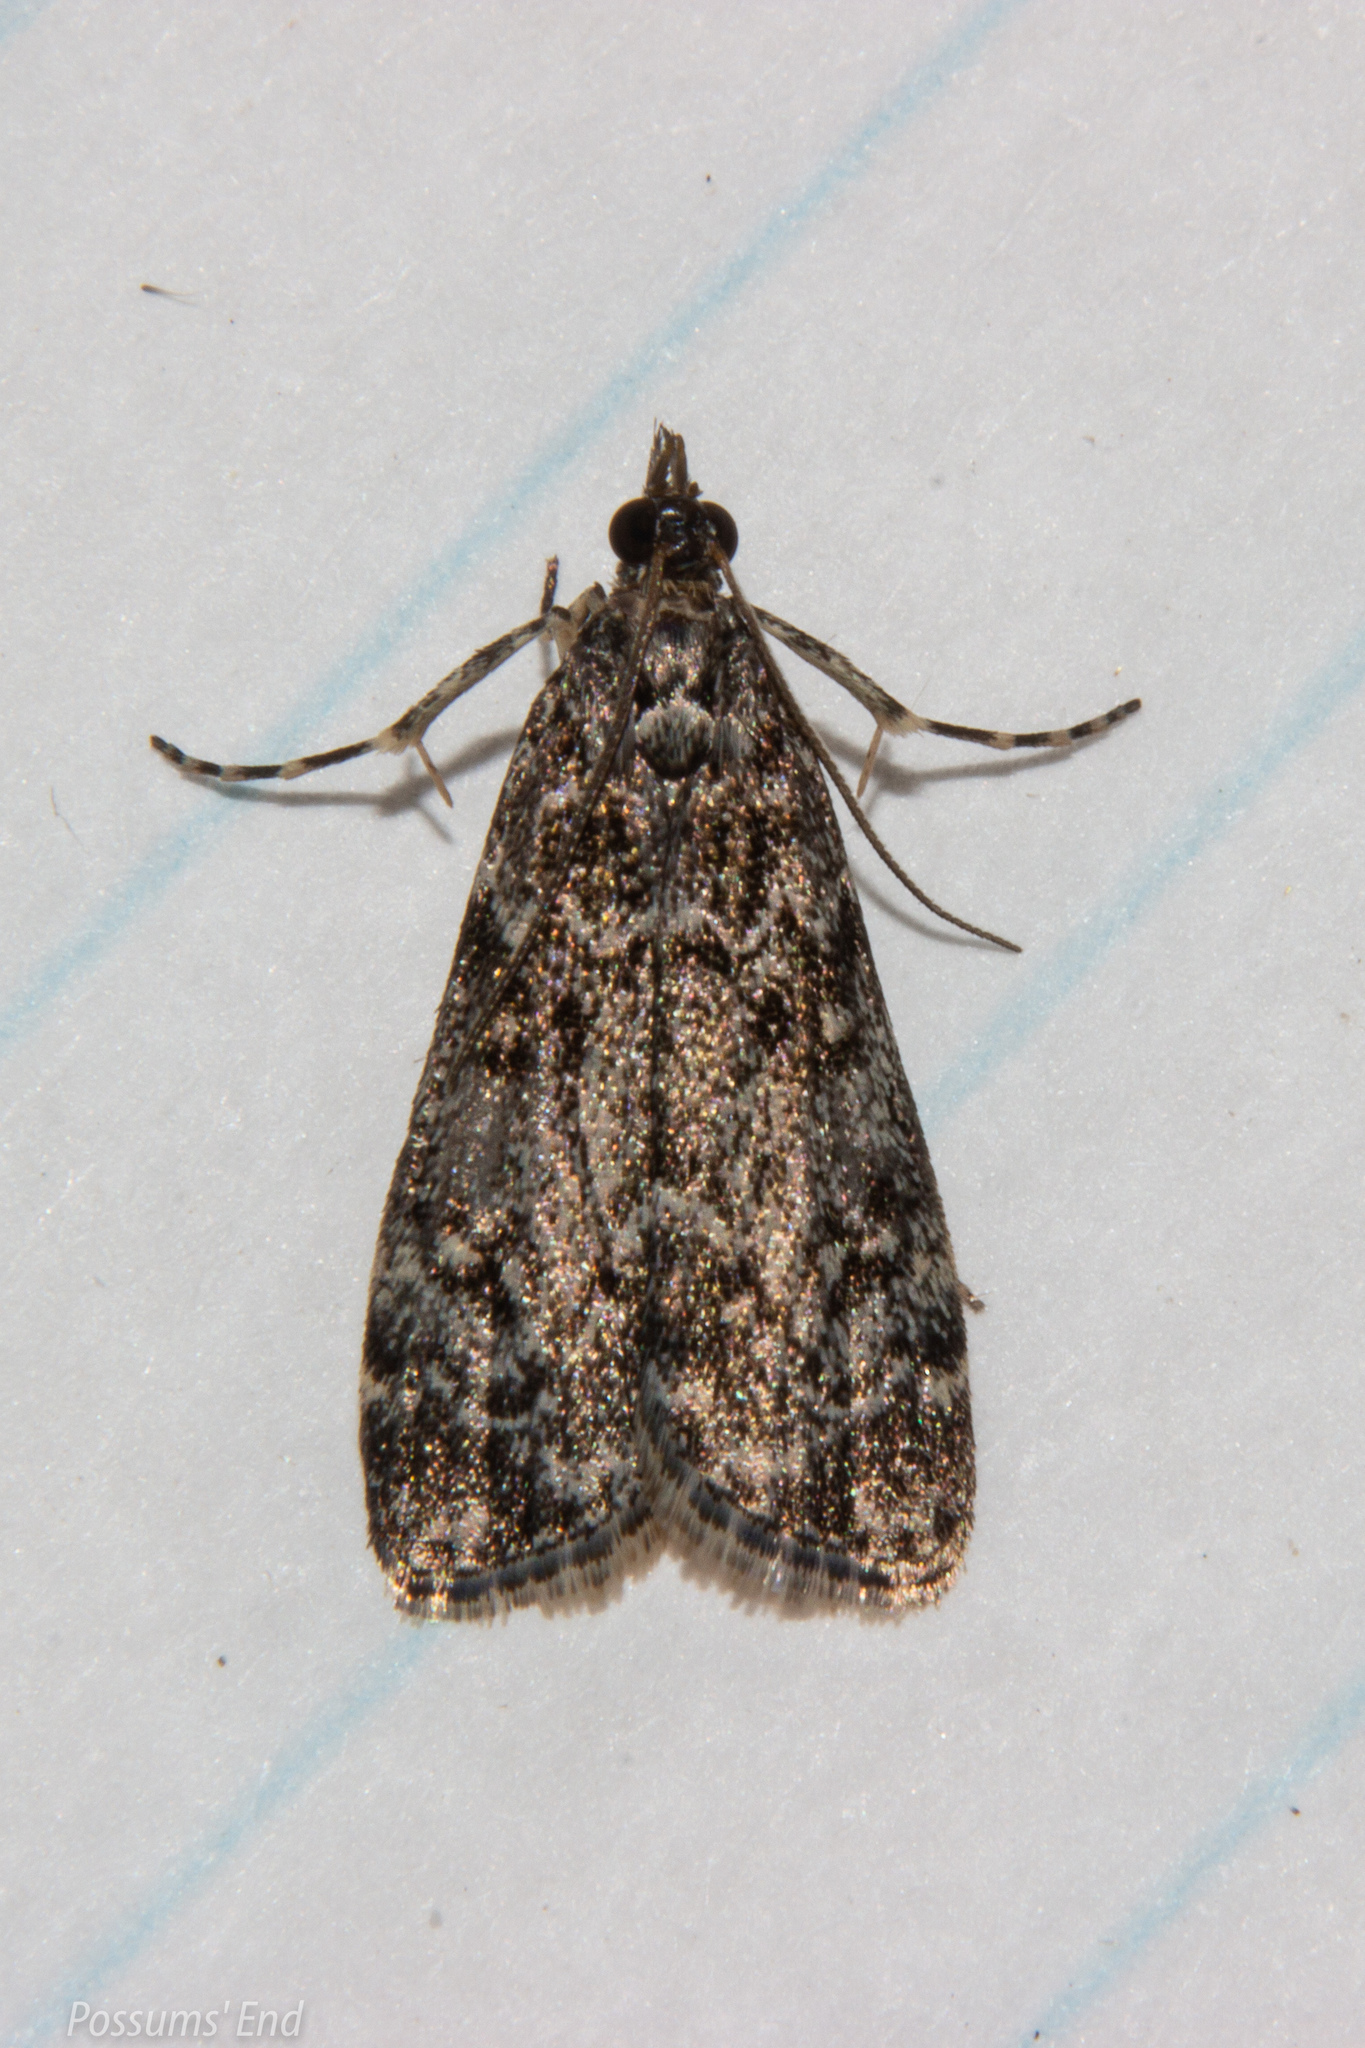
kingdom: Animalia
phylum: Arthropoda
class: Insecta
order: Lepidoptera
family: Crambidae
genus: Eudonia
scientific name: Eudonia philerga
